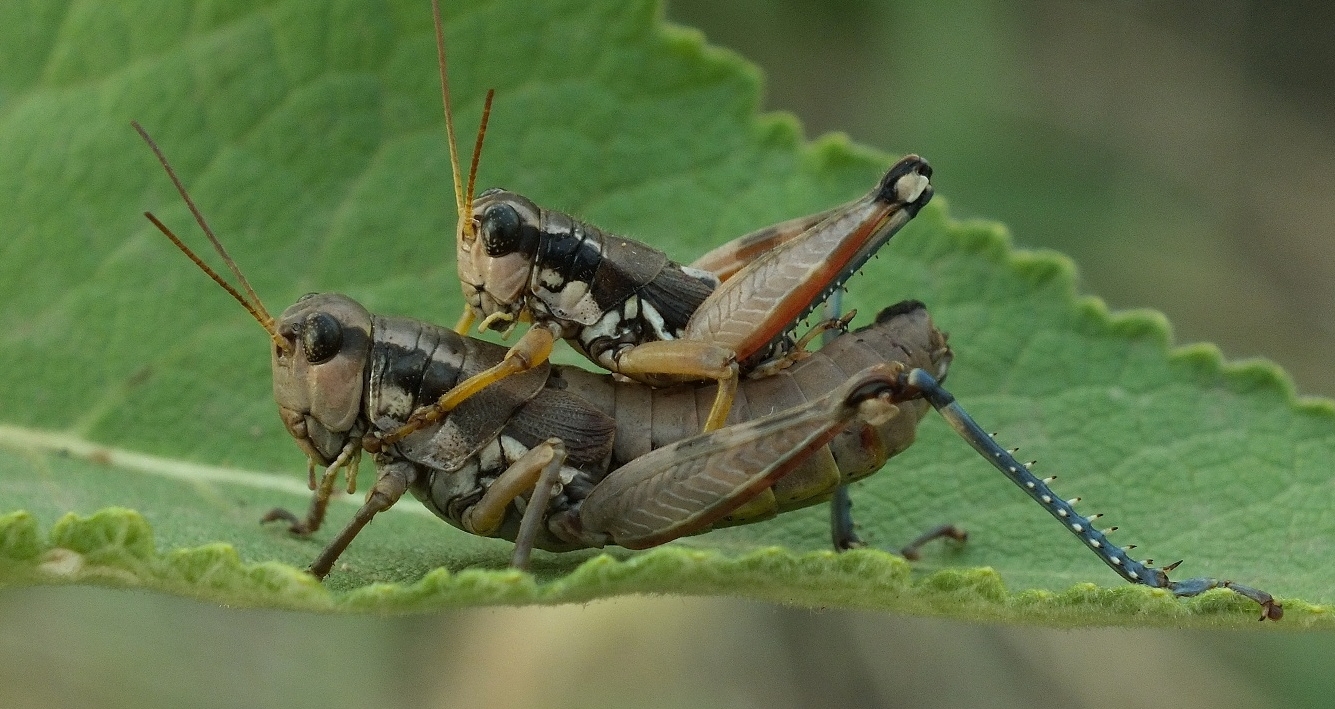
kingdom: Animalia
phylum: Arthropoda
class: Insecta
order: Orthoptera
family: Acrididae
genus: Podisma
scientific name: Podisma pedestris
